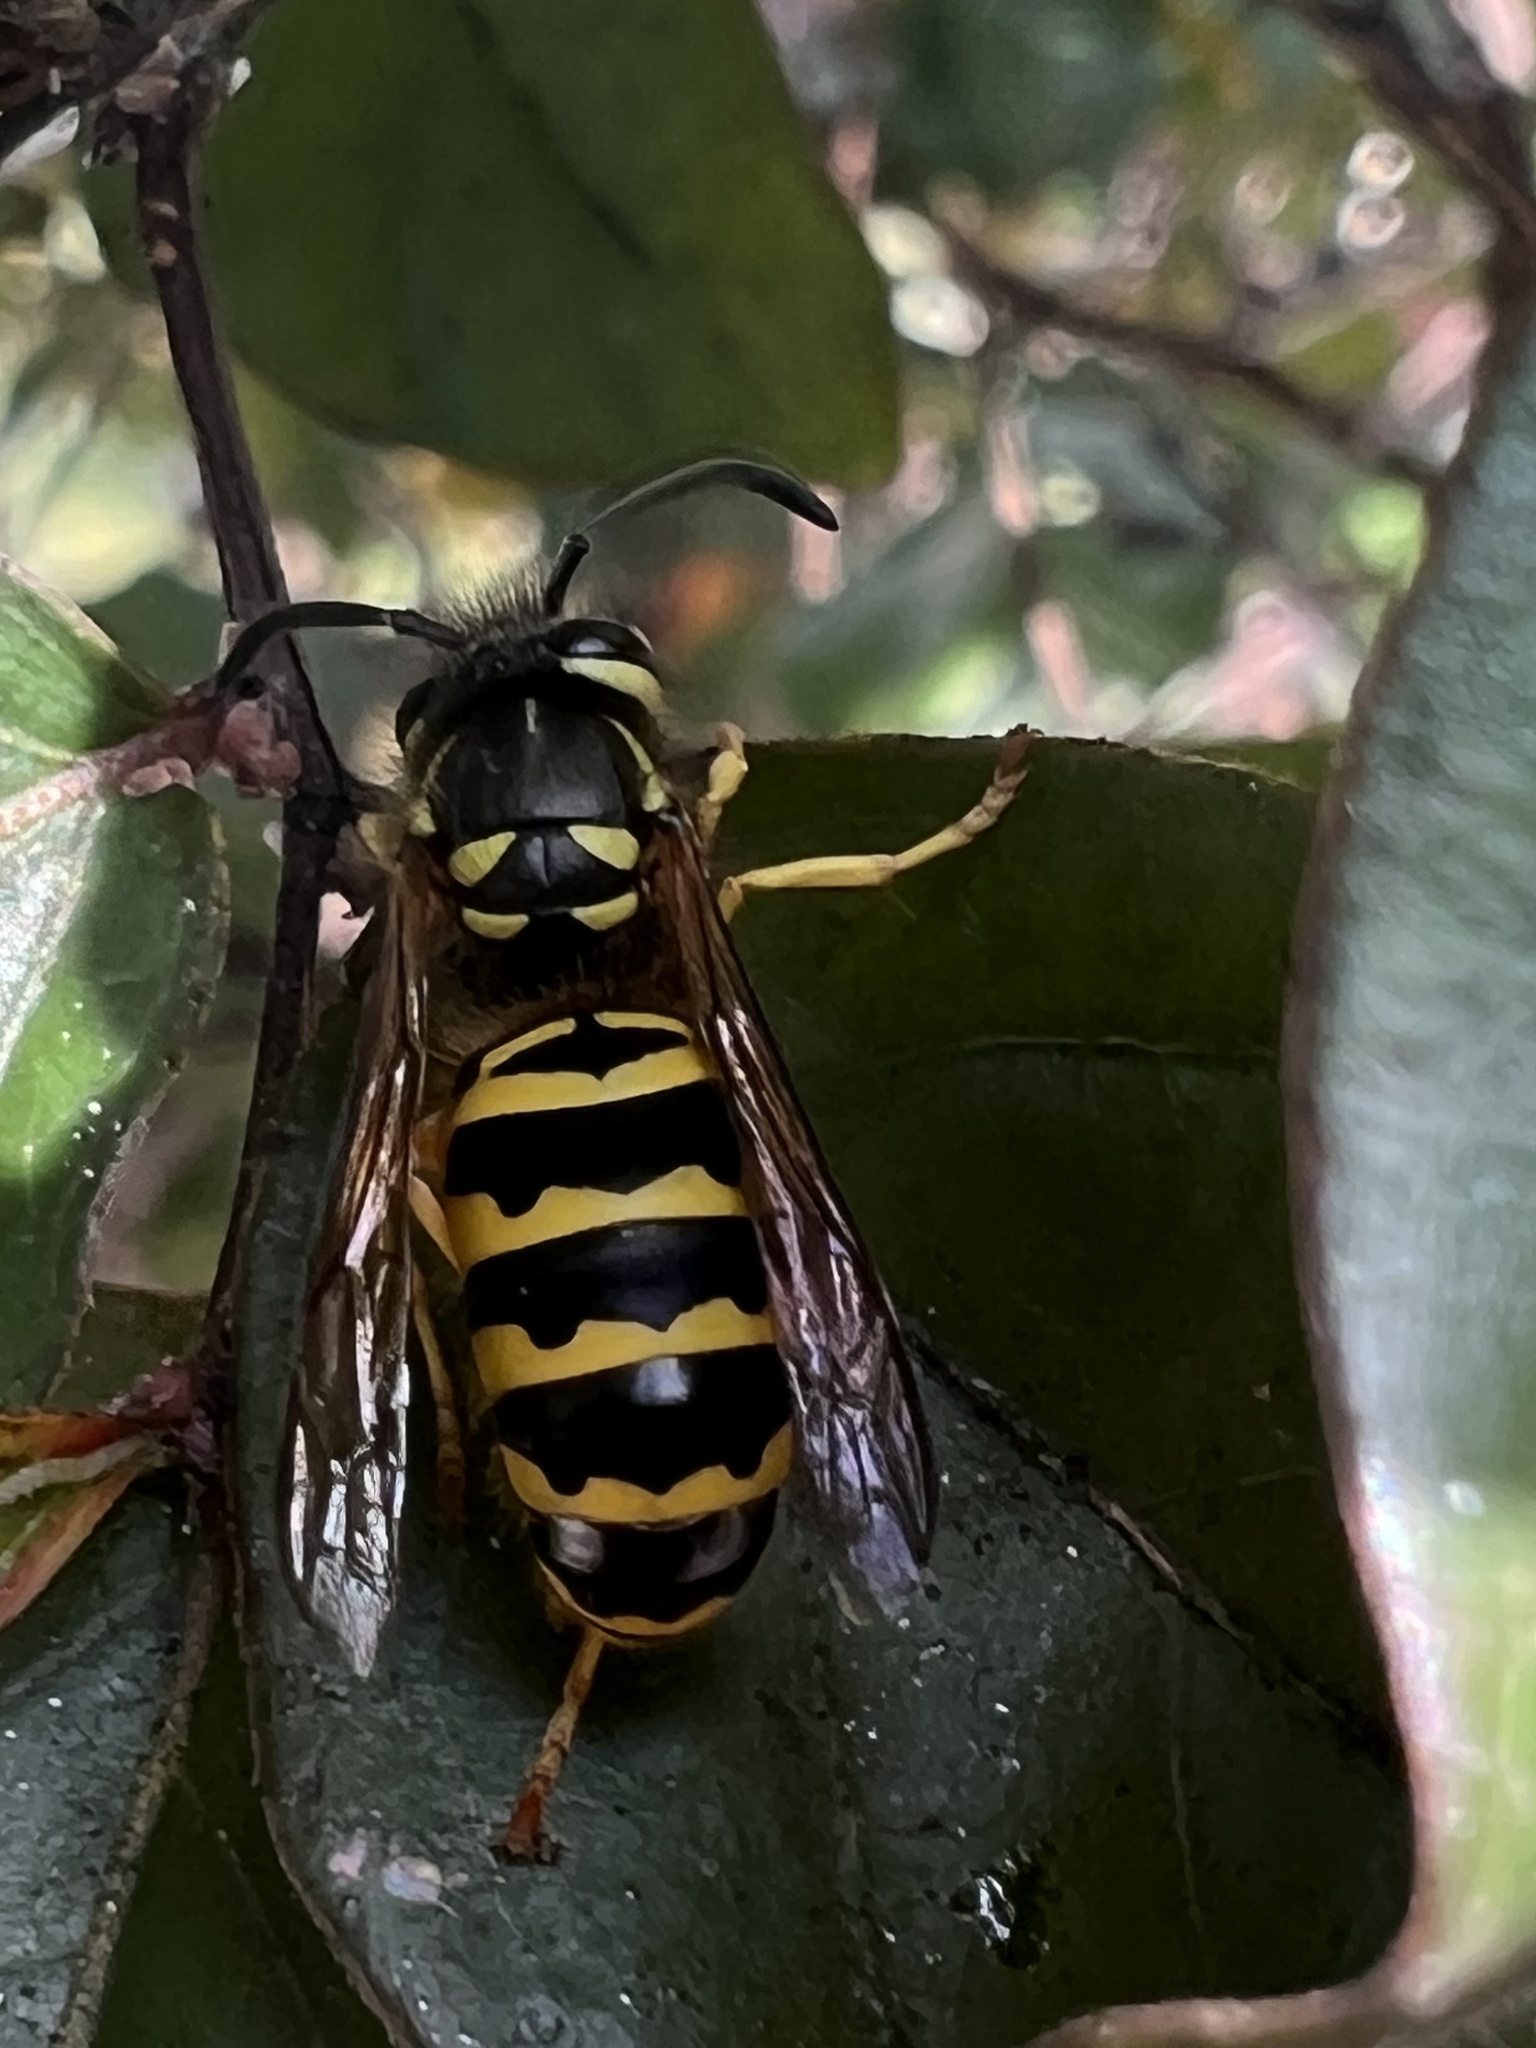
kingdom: Animalia
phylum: Arthropoda
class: Insecta
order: Hymenoptera
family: Vespidae
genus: Vespula
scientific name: Vespula maculifrons
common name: Eastern yellowjacket
